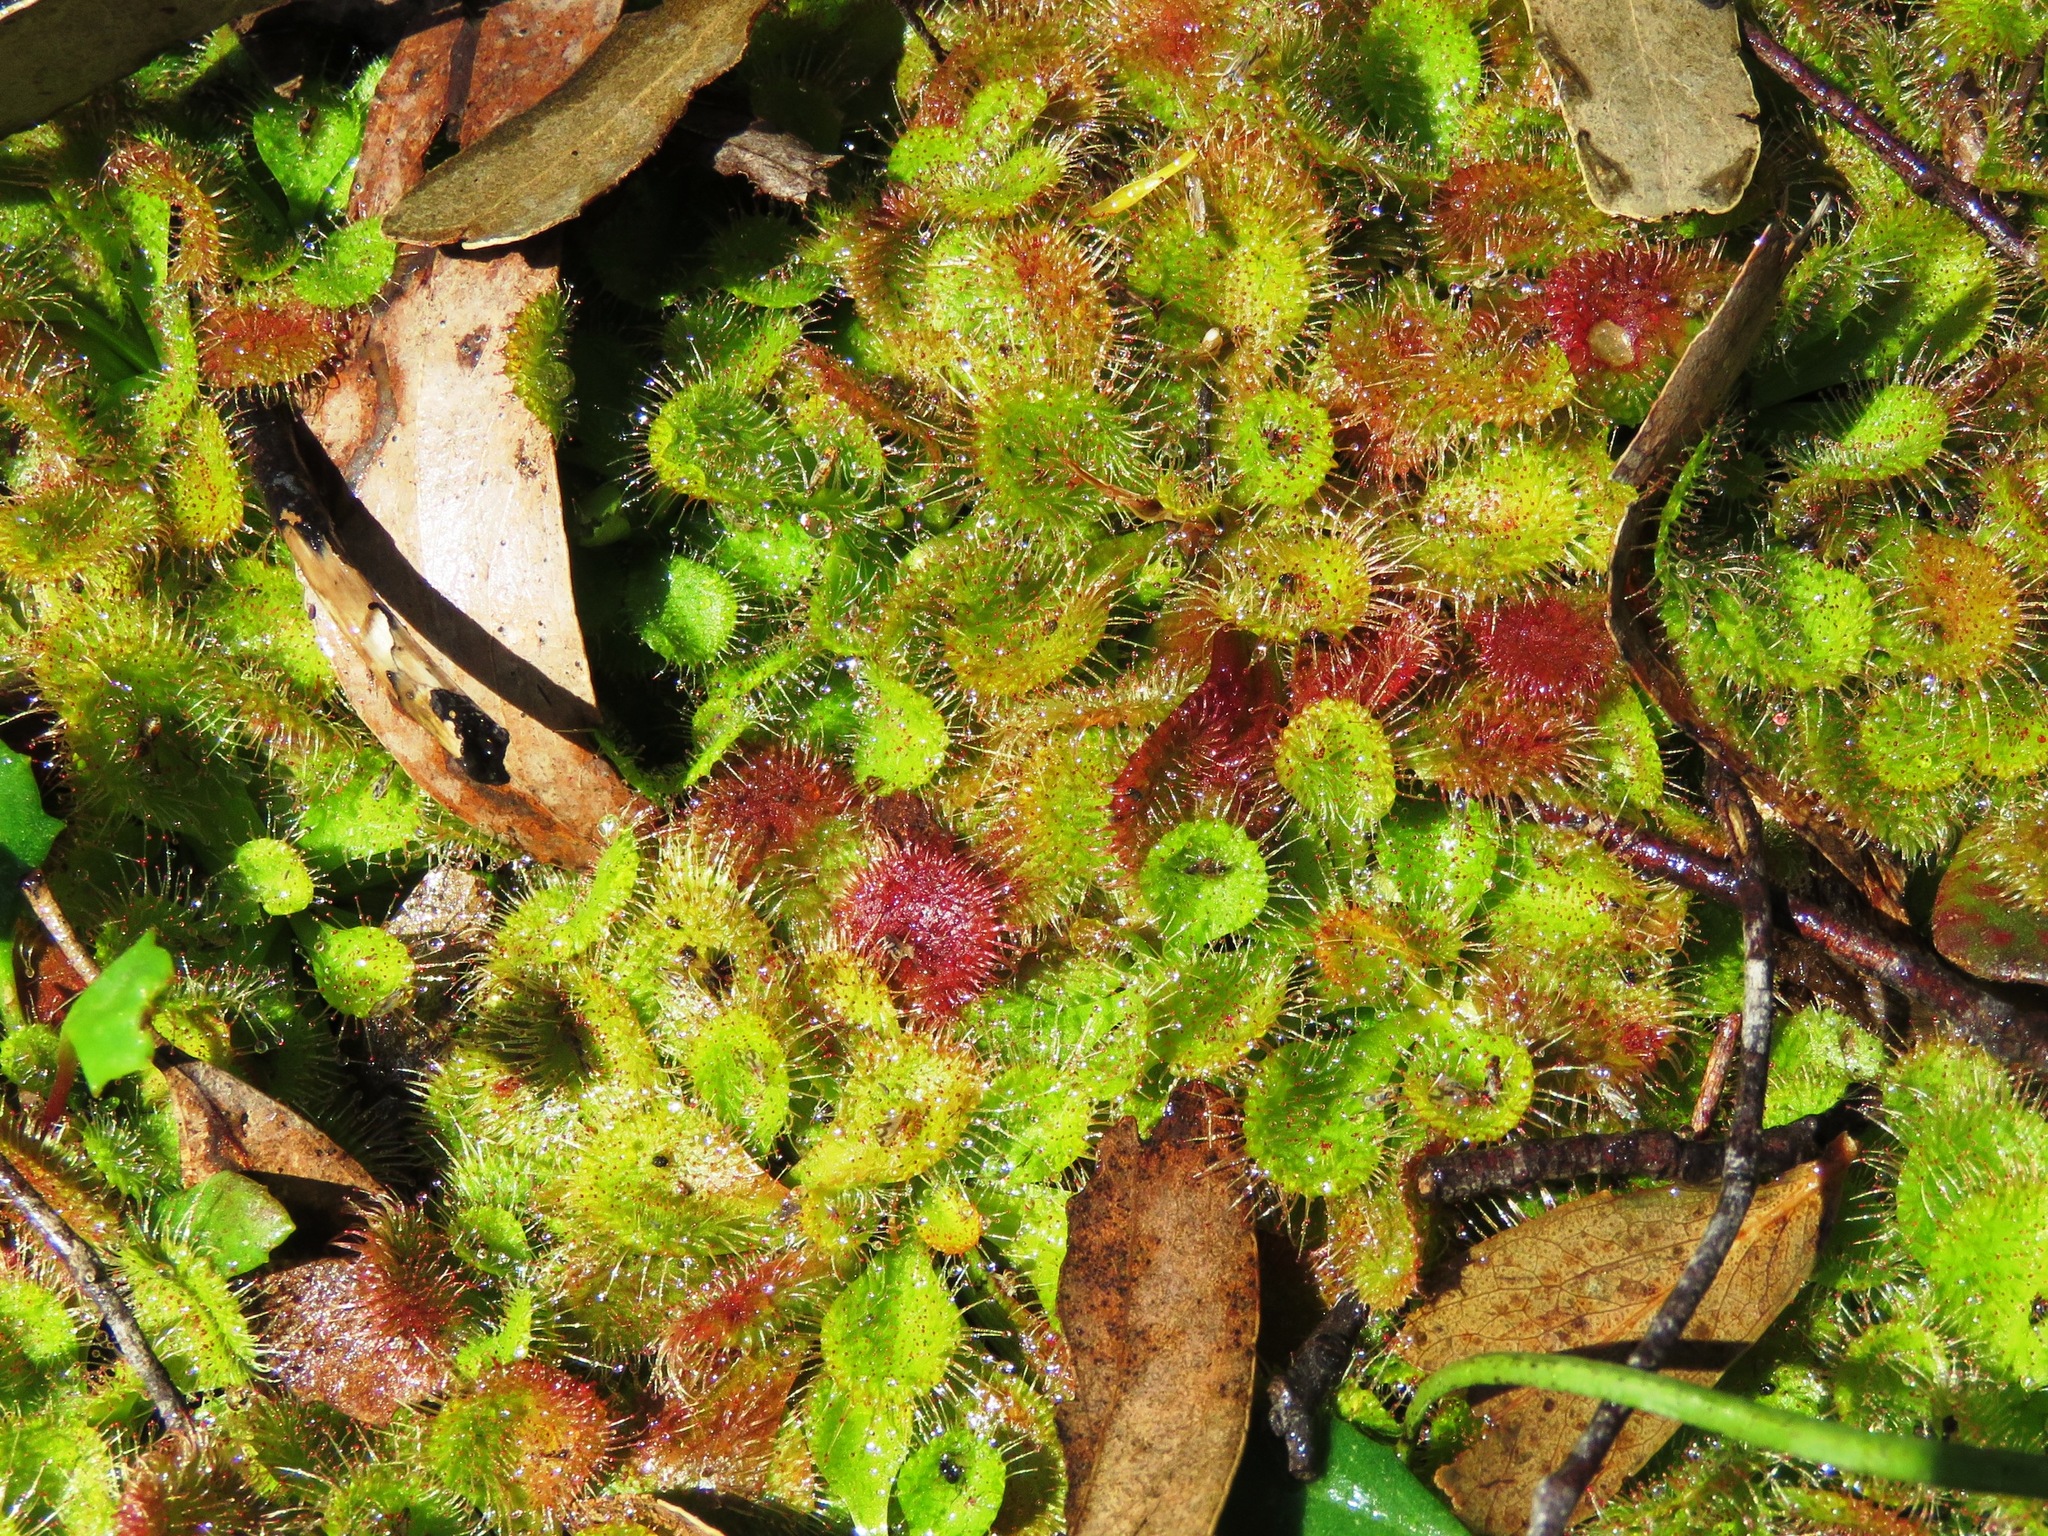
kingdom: Plantae
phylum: Tracheophyta
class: Magnoliopsida
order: Caryophyllales
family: Droseraceae
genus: Drosera
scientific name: Drosera aberrans
